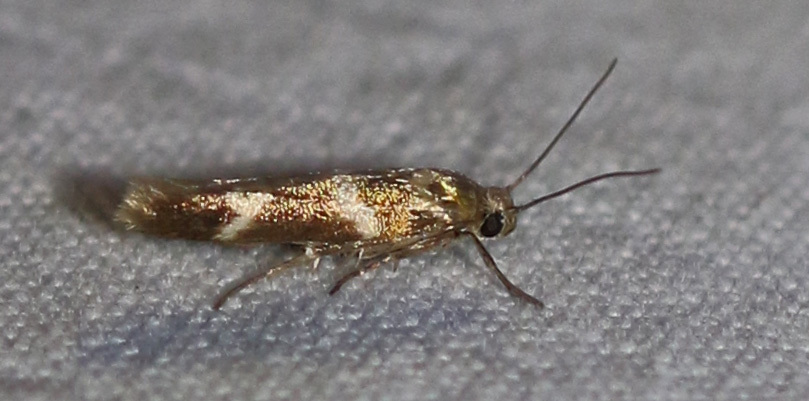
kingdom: Animalia
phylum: Arthropoda
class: Insecta
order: Lepidoptera
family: Scythrididae
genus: Scythris
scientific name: Scythris trivinctella
